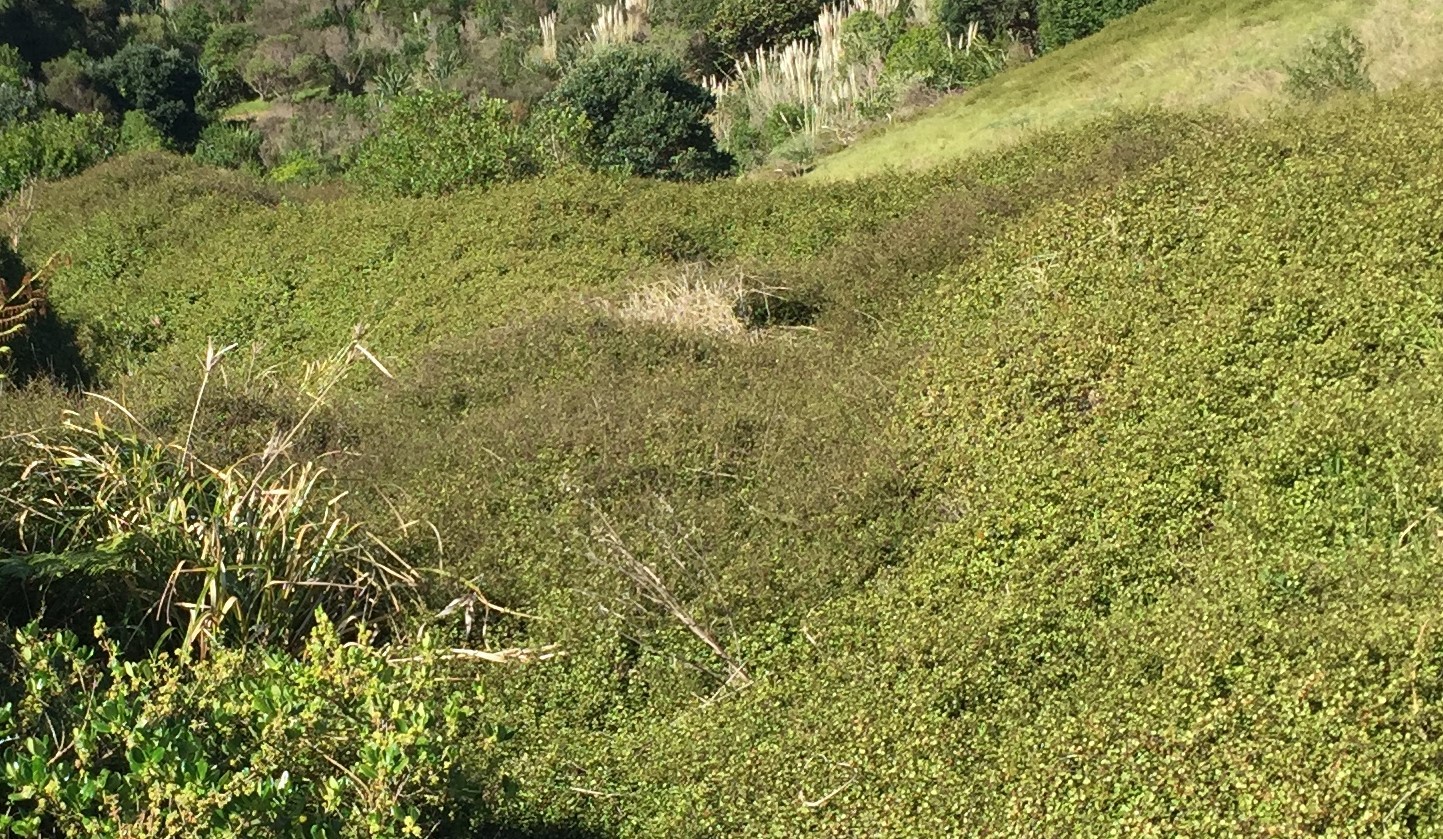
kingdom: Plantae
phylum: Tracheophyta
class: Magnoliopsida
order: Caryophyllales
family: Polygonaceae
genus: Muehlenbeckia
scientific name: Muehlenbeckia complexa
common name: Wireplant
